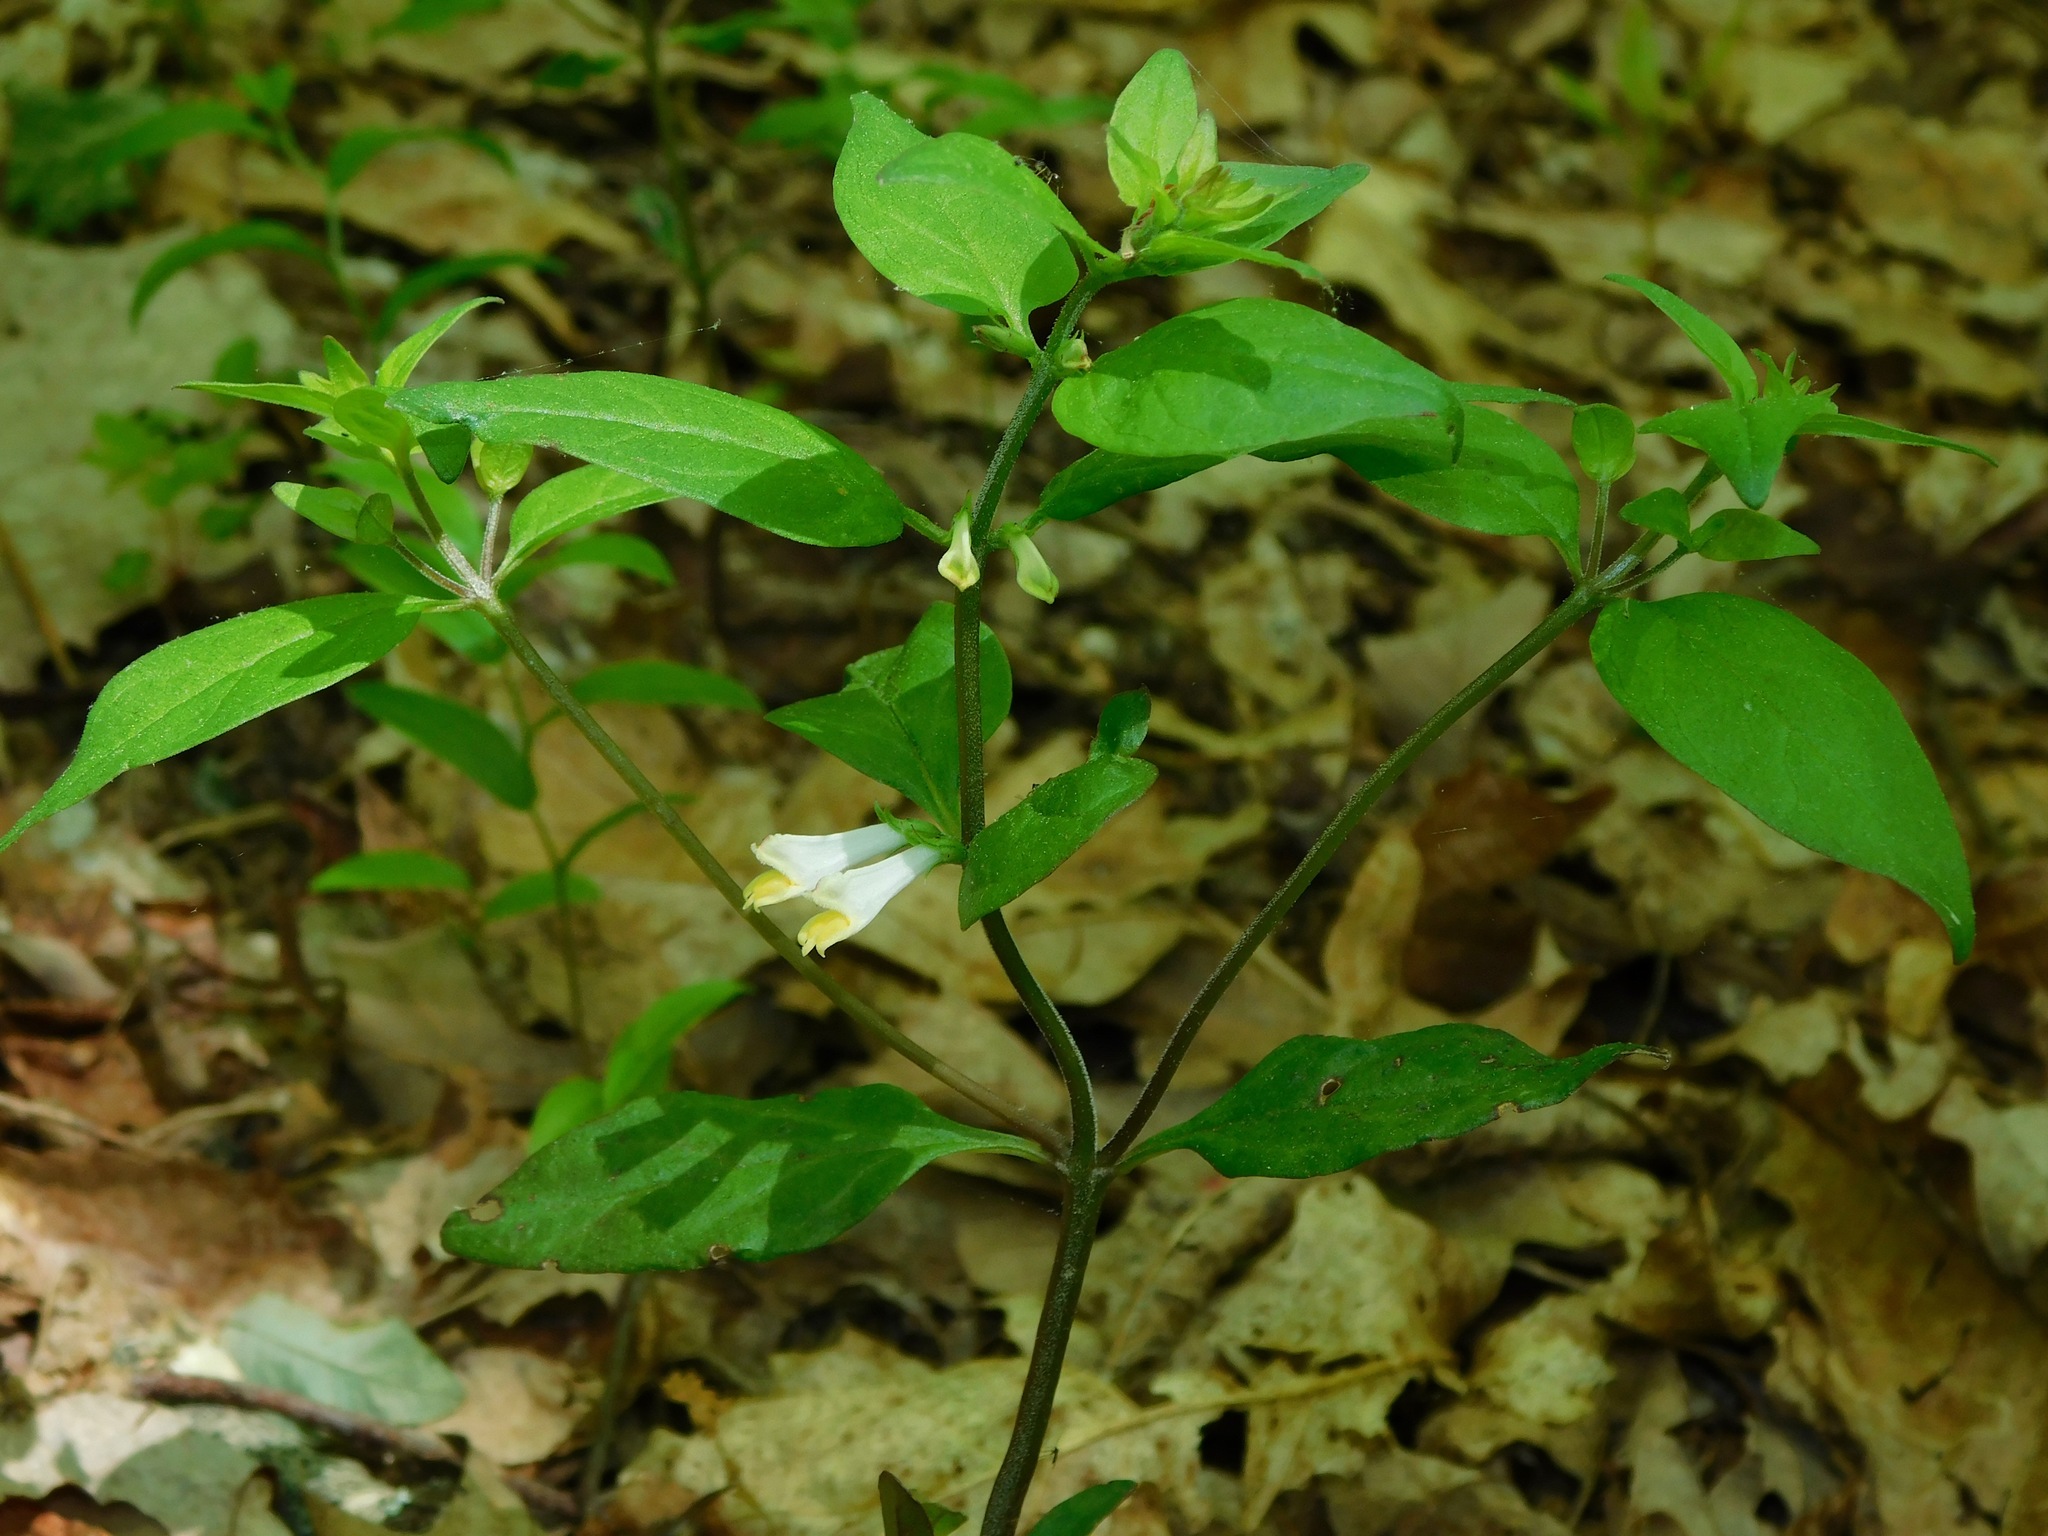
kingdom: Plantae
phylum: Tracheophyta
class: Magnoliopsida
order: Lamiales
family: Orobanchaceae
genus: Melampyrum
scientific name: Melampyrum lineare
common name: American cow-wheat
